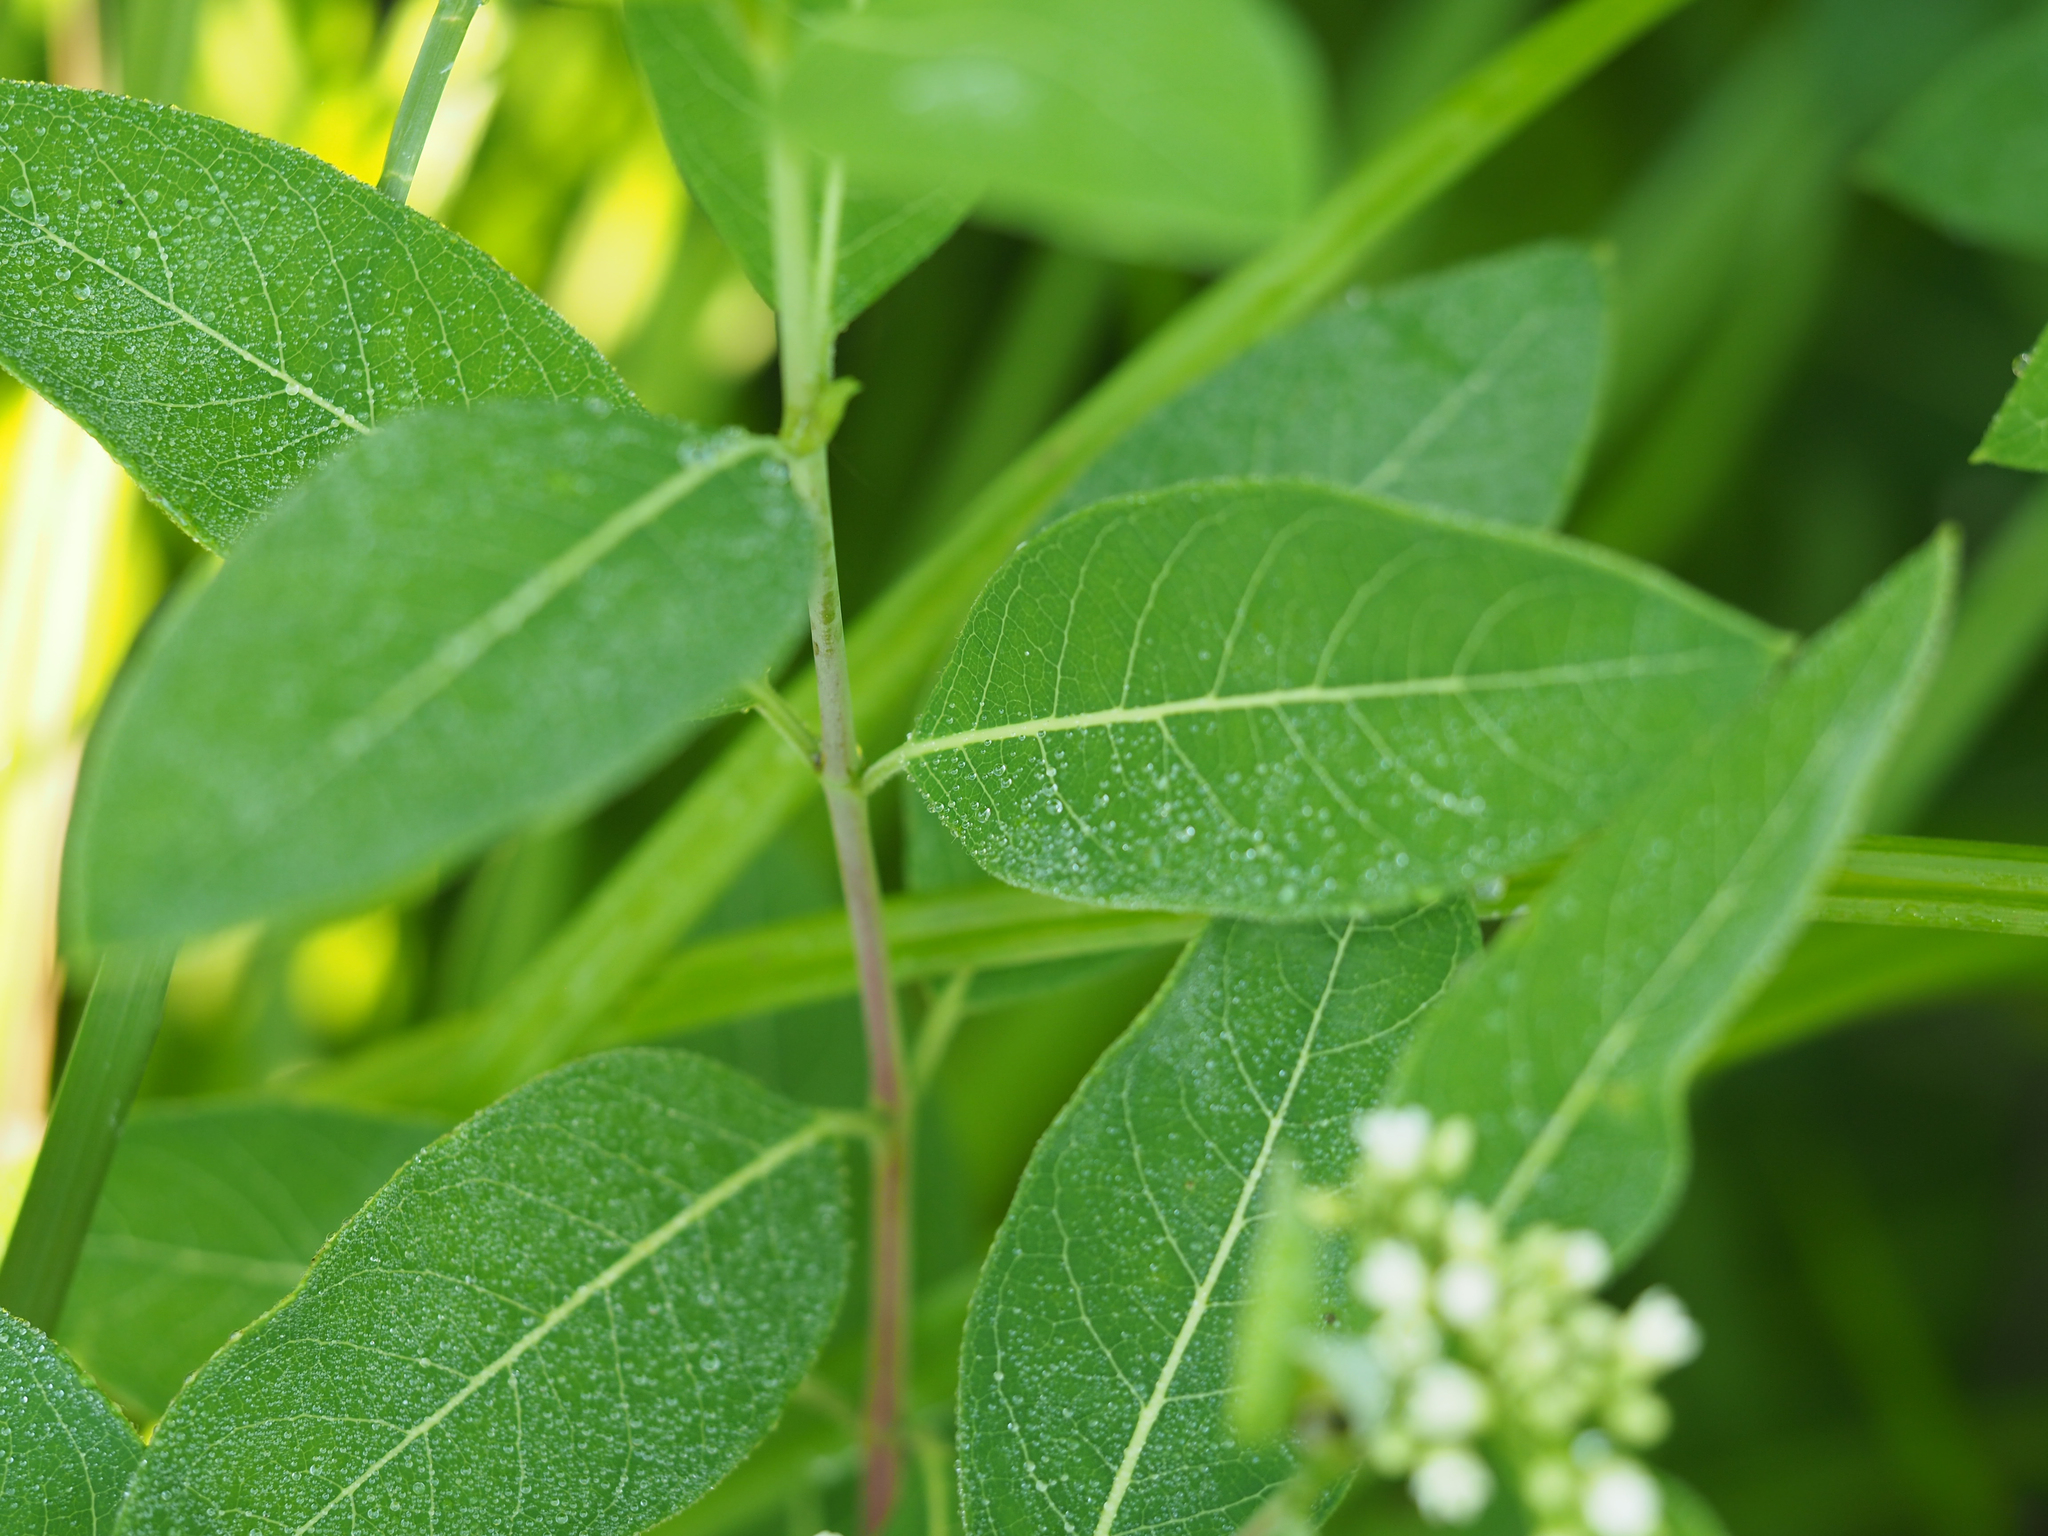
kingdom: Plantae
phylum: Tracheophyta
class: Magnoliopsida
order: Gentianales
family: Apocynaceae
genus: Apocynum
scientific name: Apocynum cannabinum
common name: Hemp dogbane
